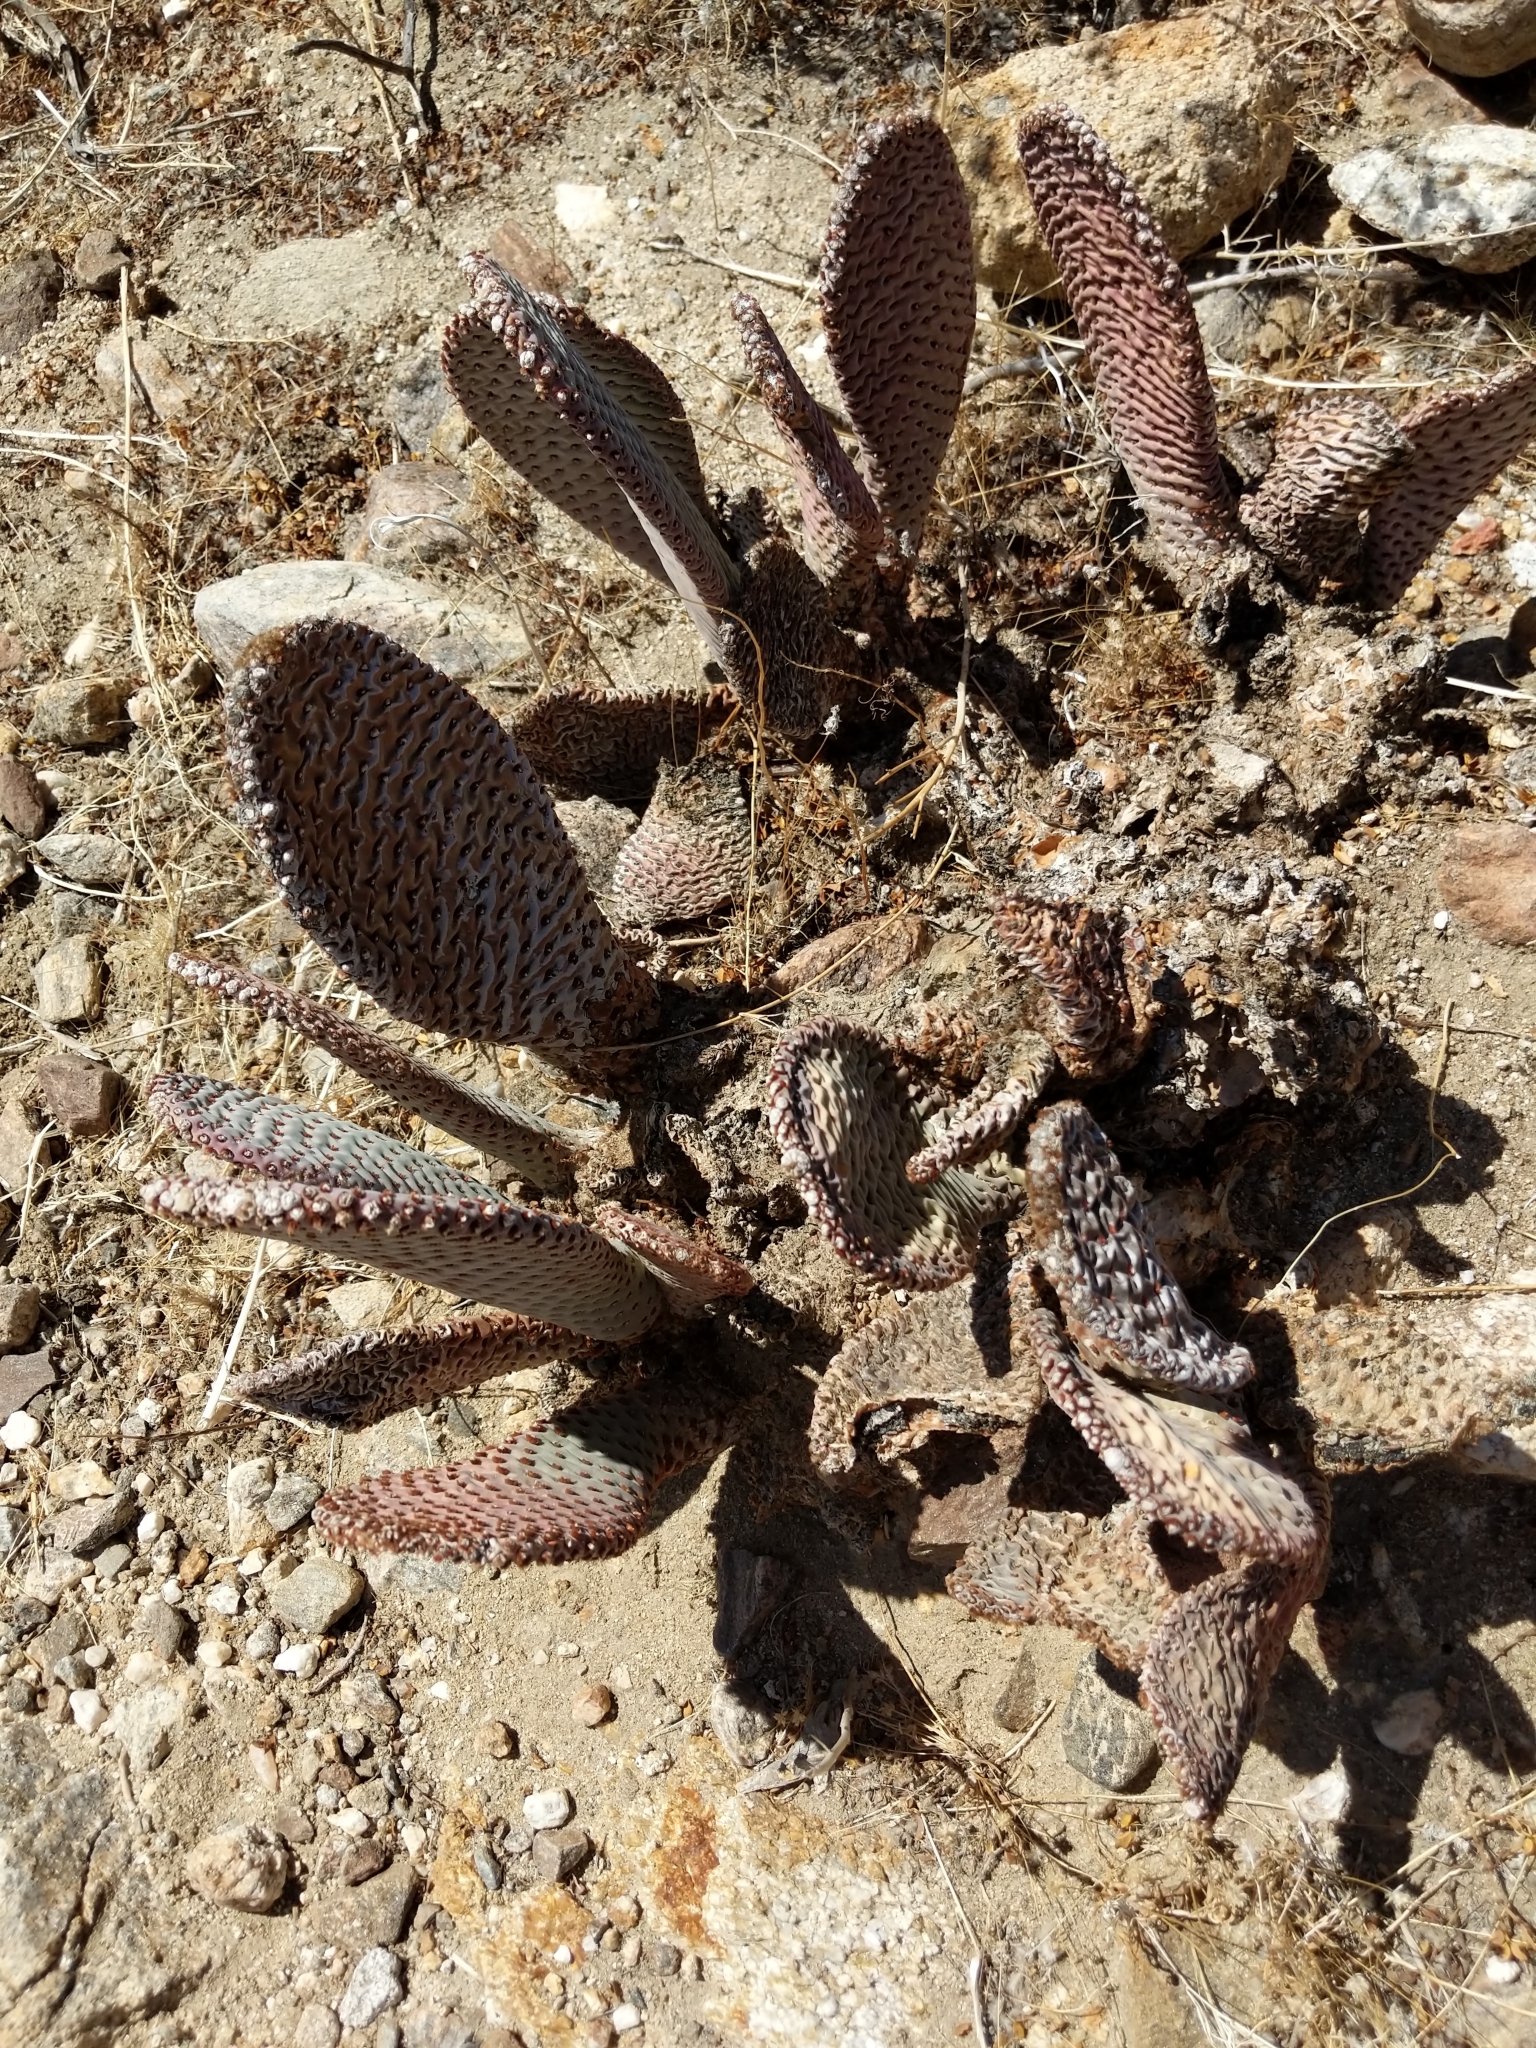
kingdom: Plantae
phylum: Tracheophyta
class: Magnoliopsida
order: Caryophyllales
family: Cactaceae
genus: Opuntia
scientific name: Opuntia basilaris
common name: Beavertail prickly-pear
